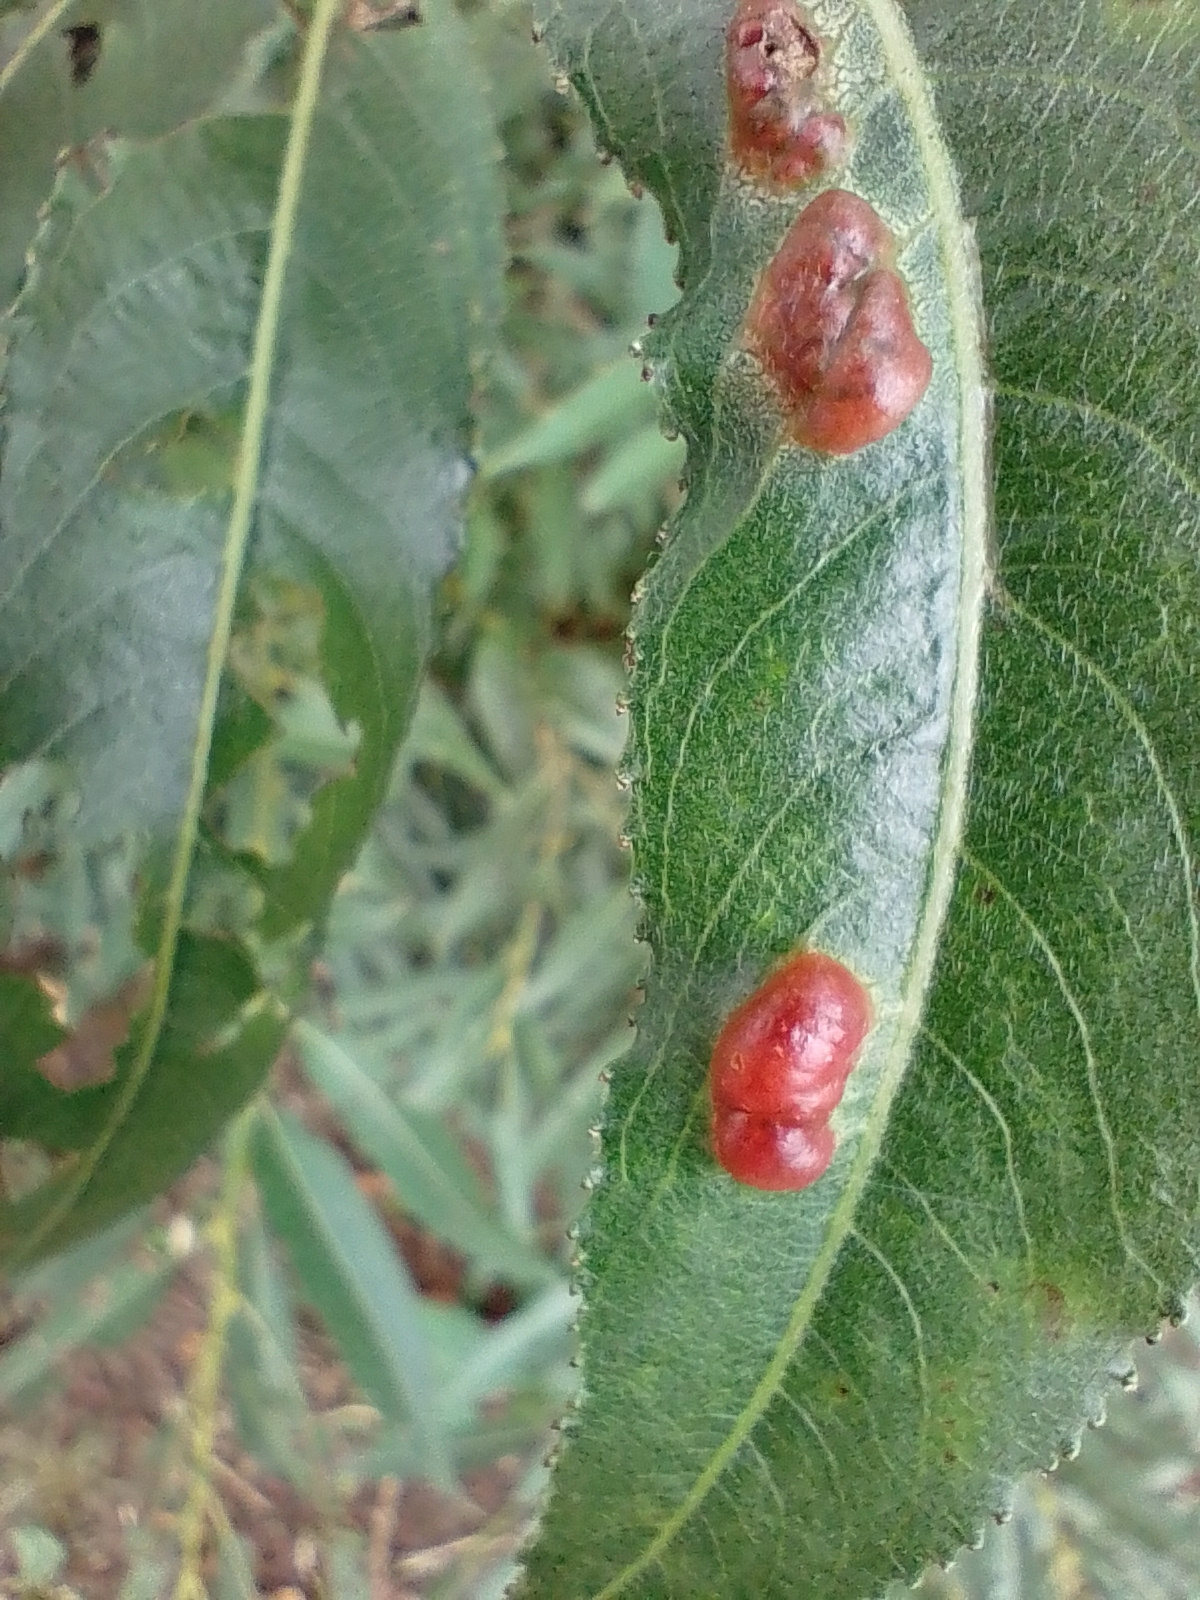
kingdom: Animalia
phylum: Arthropoda
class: Insecta
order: Hymenoptera
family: Tenthredinidae
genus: Pontania
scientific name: Pontania proxima
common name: Common sawfly
